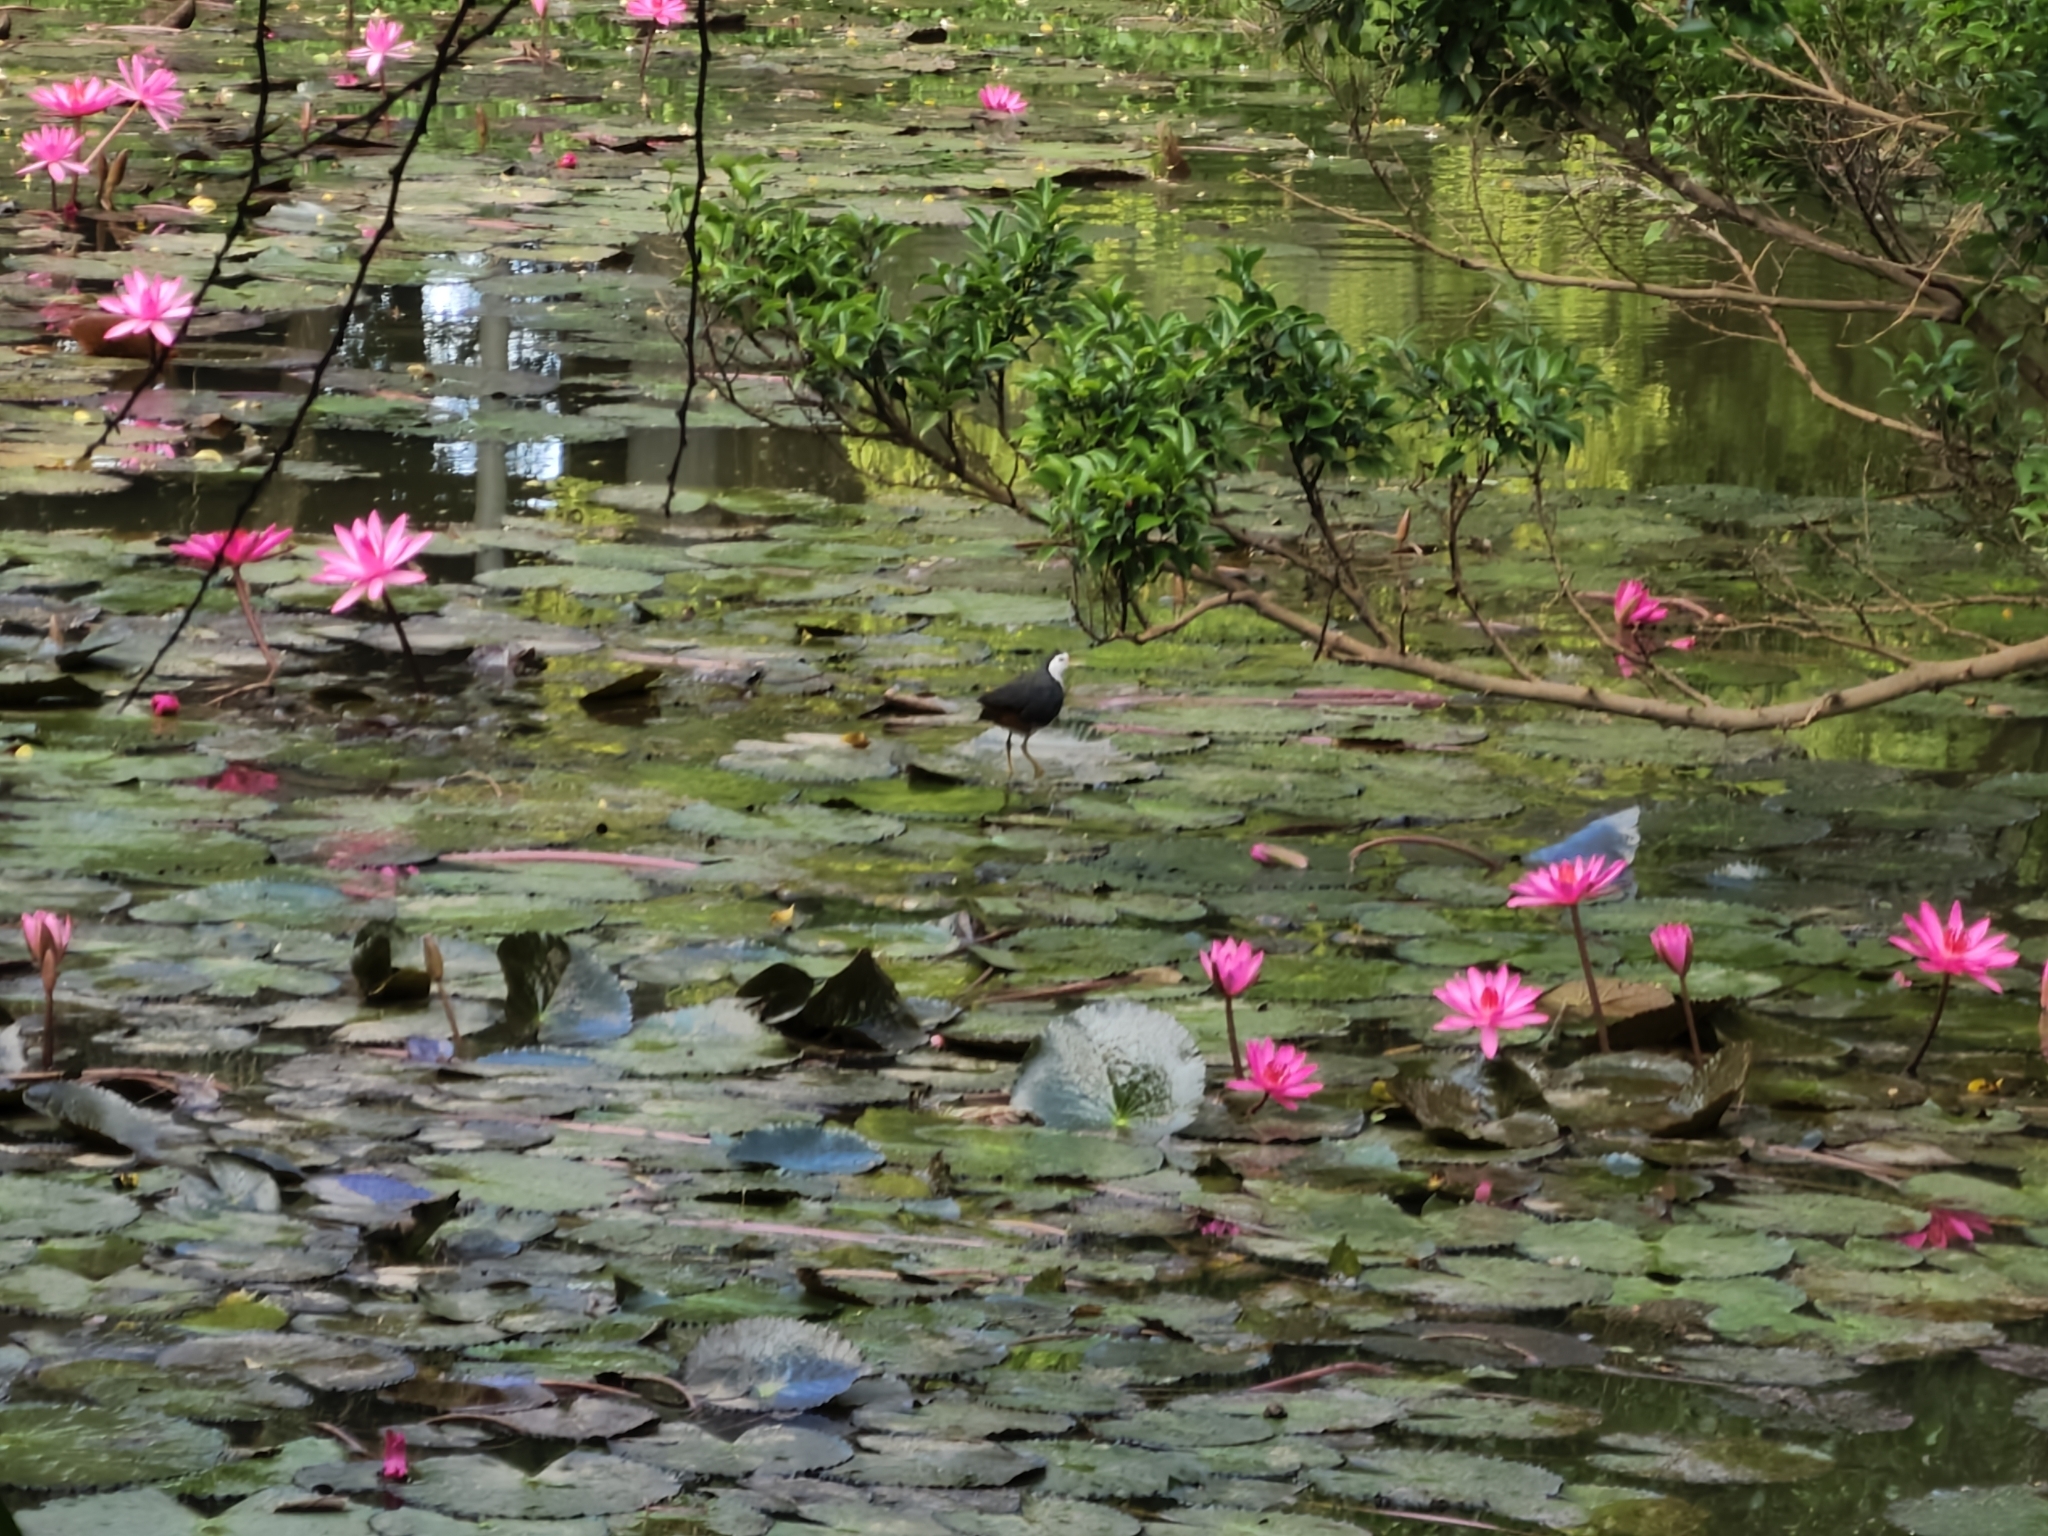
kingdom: Animalia
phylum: Chordata
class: Aves
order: Gruiformes
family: Rallidae
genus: Amaurornis
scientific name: Amaurornis phoenicurus
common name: White-breasted waterhen
